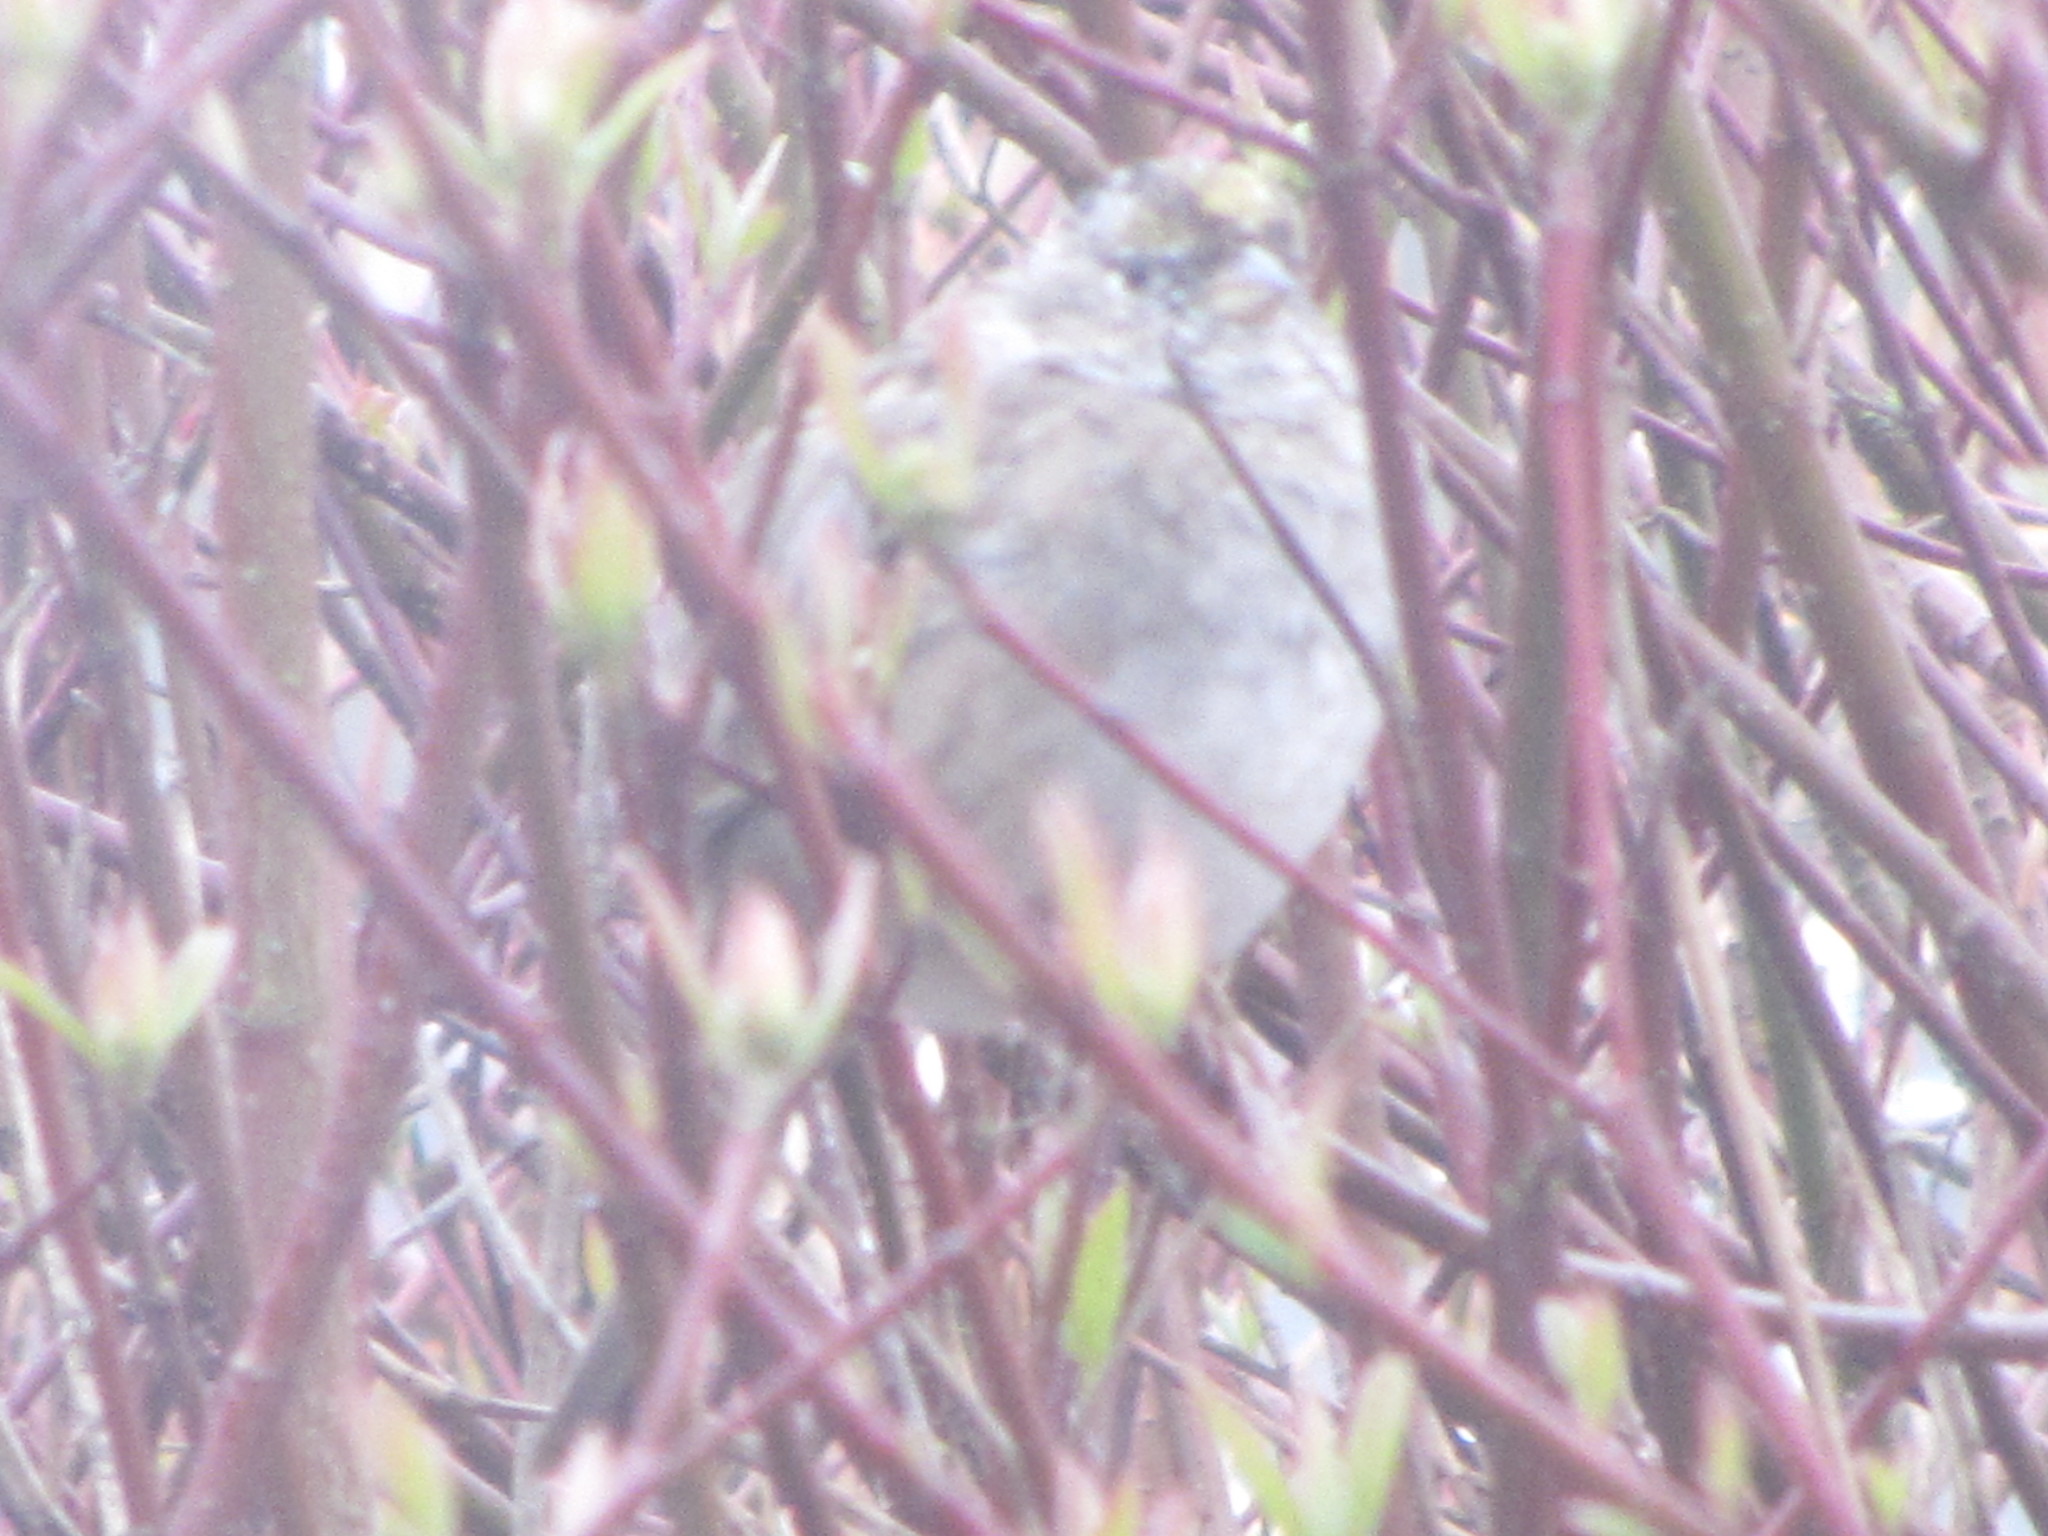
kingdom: Animalia
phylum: Chordata
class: Aves
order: Passeriformes
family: Passerellidae
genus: Zonotrichia
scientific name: Zonotrichia atricapilla
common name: Golden-crowned sparrow
